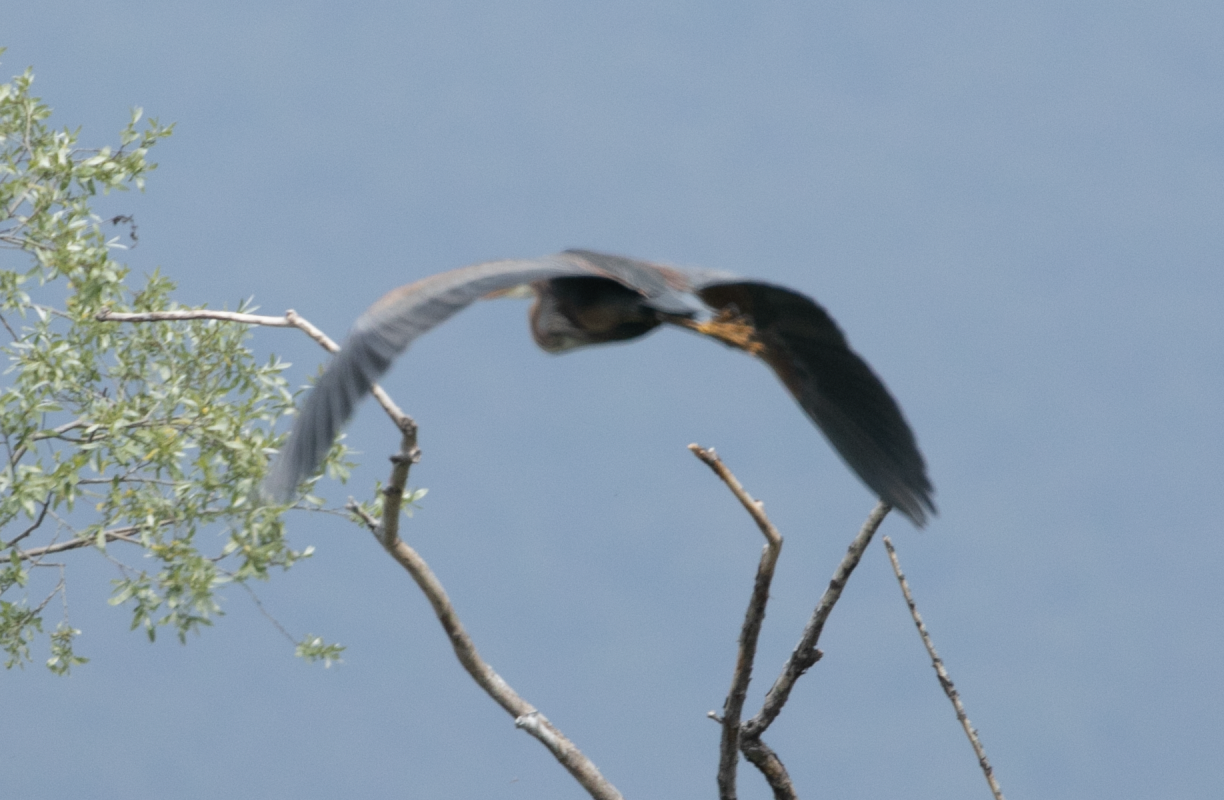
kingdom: Animalia
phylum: Chordata
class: Aves
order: Pelecaniformes
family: Ardeidae
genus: Ardea
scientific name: Ardea purpurea
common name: Purple heron
